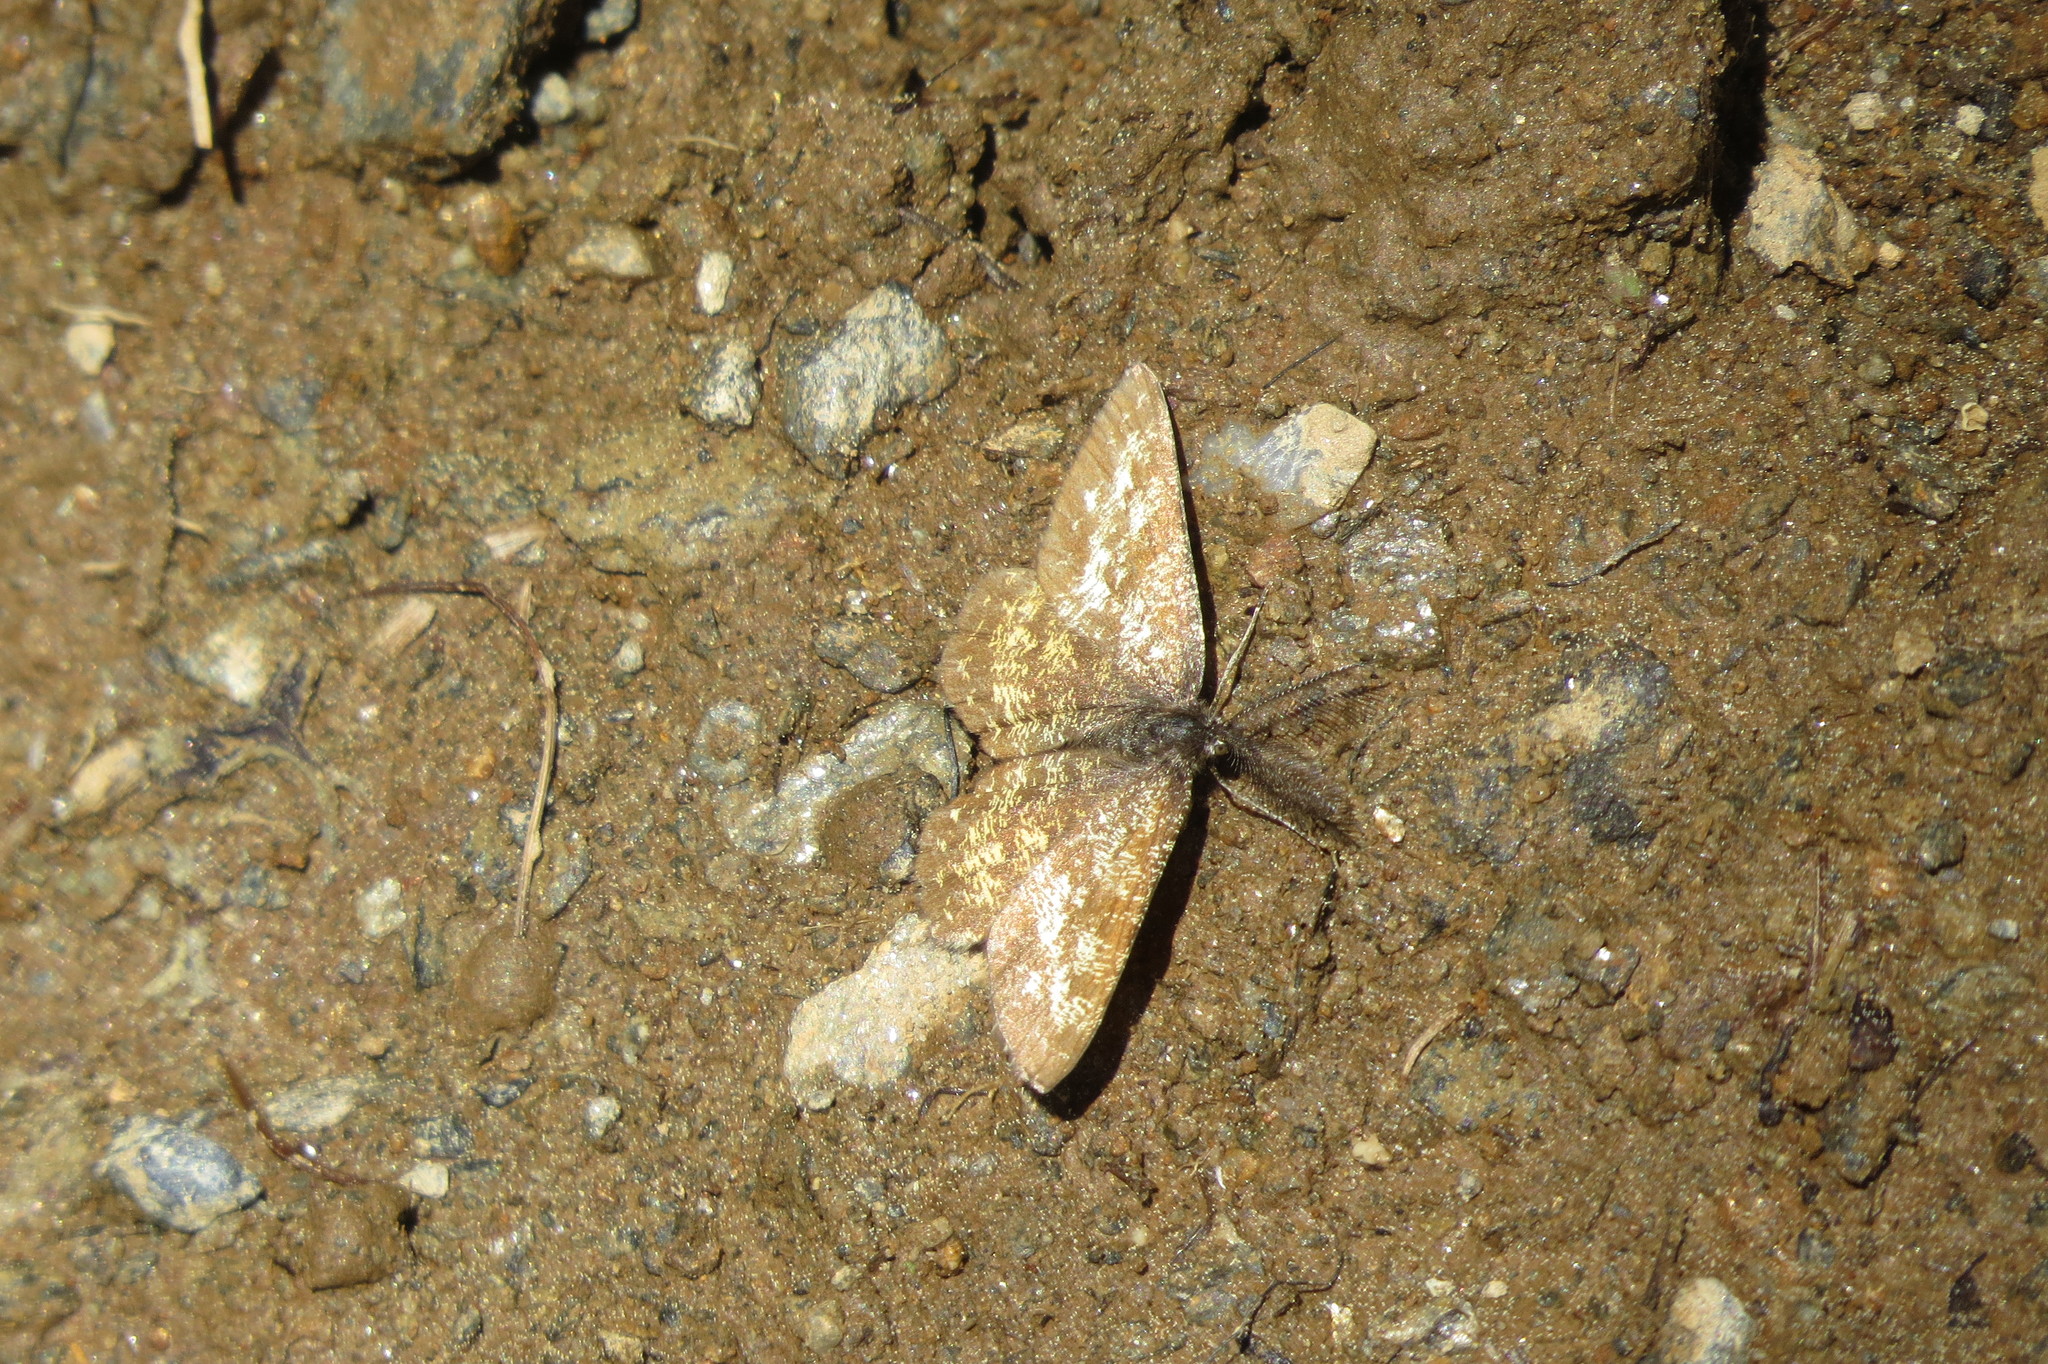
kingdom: Animalia
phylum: Arthropoda
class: Insecta
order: Lepidoptera
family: Geometridae
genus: Ematurga
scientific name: Ematurga atomaria
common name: Common heath
